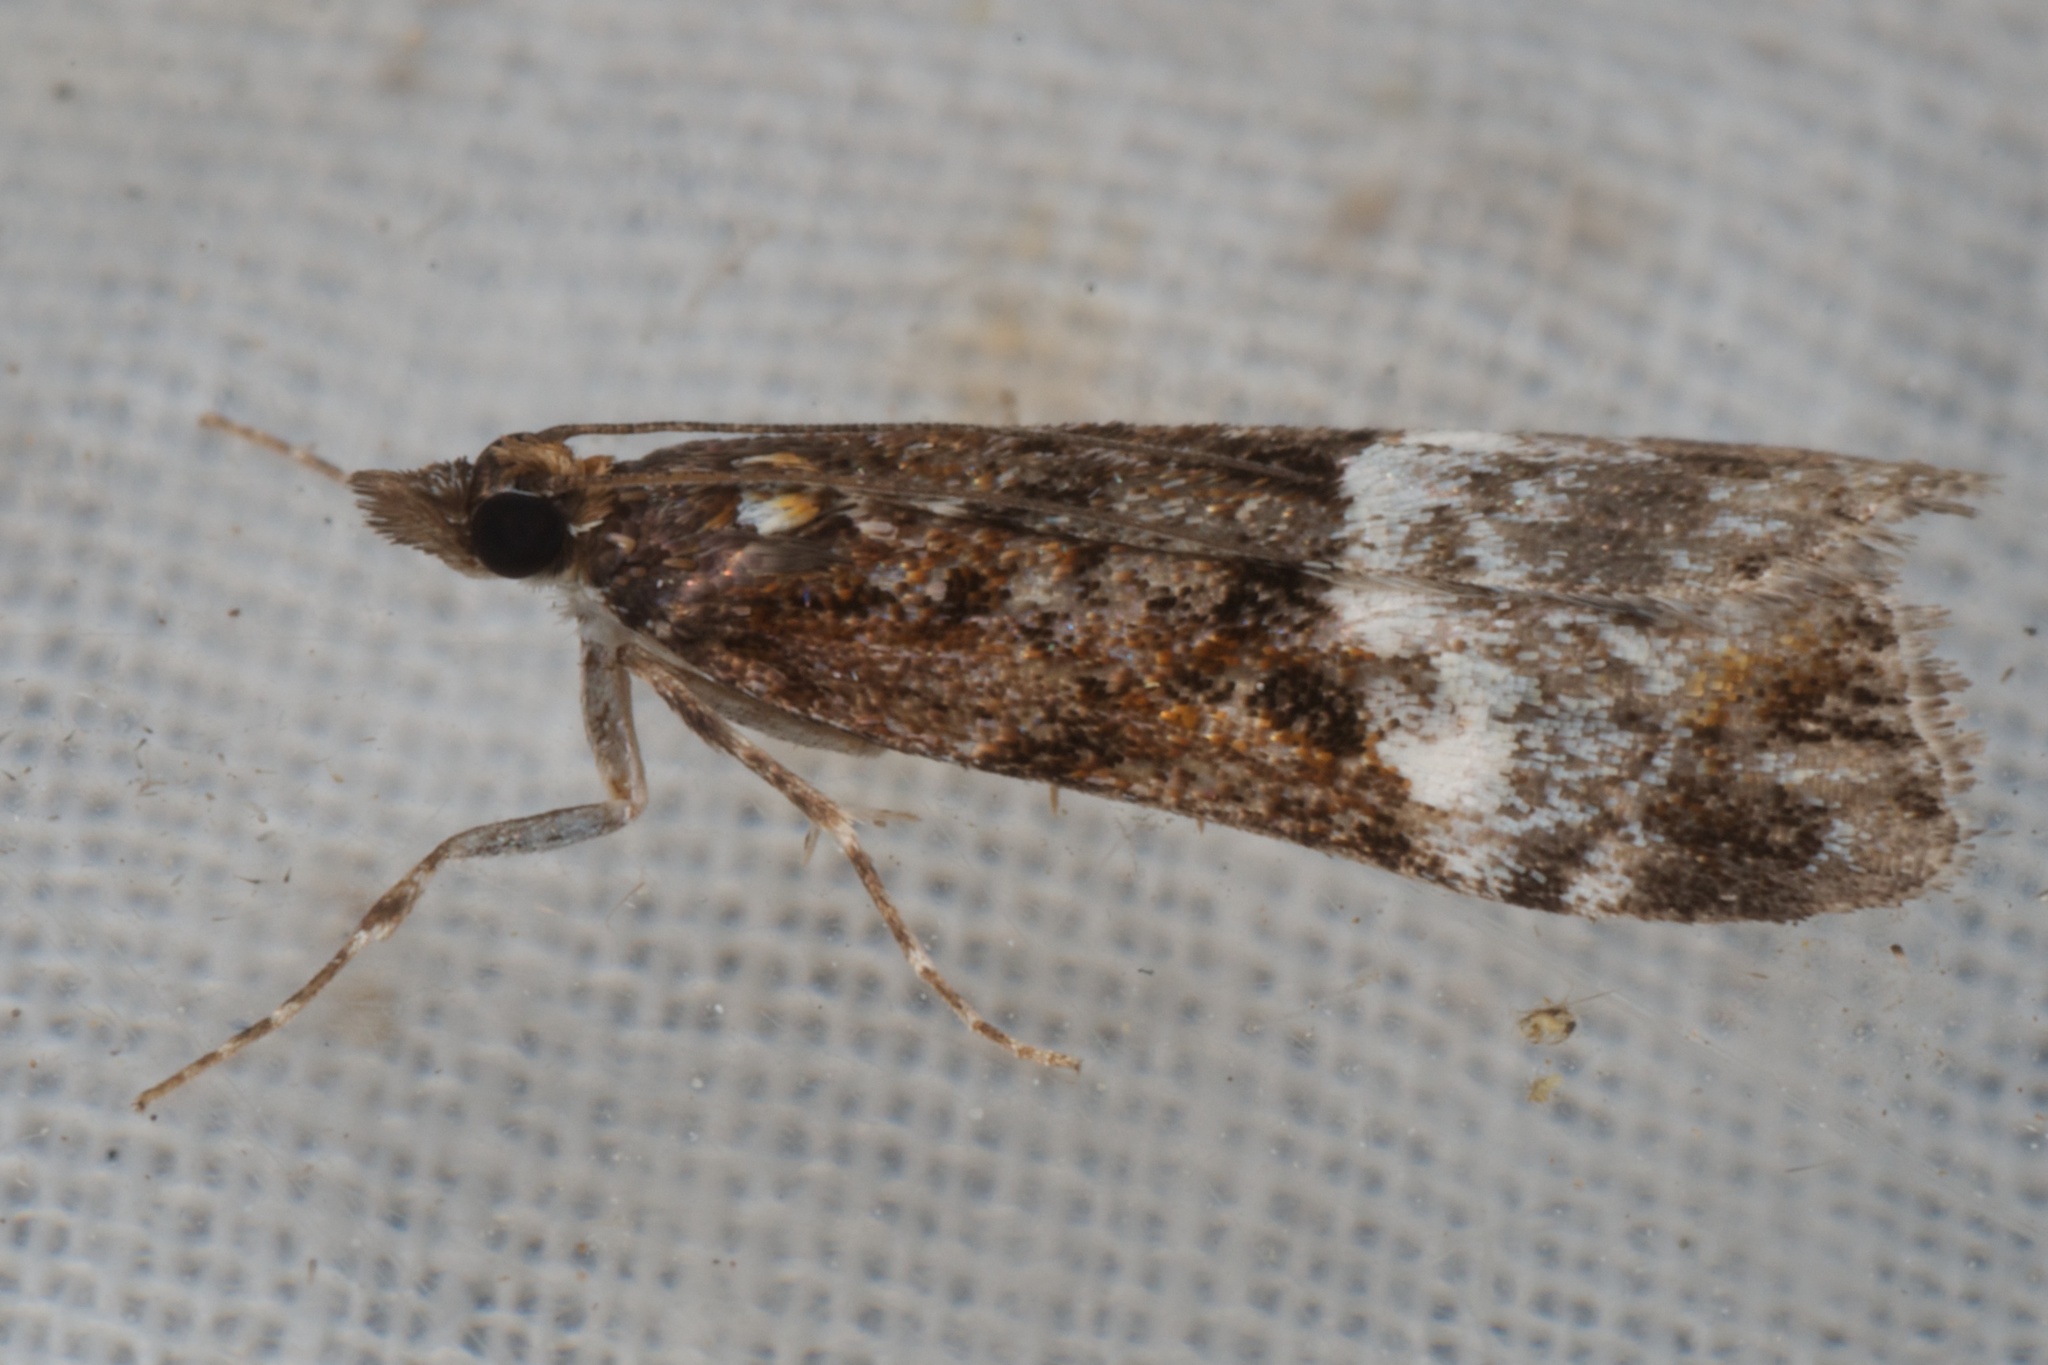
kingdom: Animalia
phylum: Arthropoda
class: Insecta
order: Lepidoptera
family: Crambidae
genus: Scoparia
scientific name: Scoparia minusculalis
